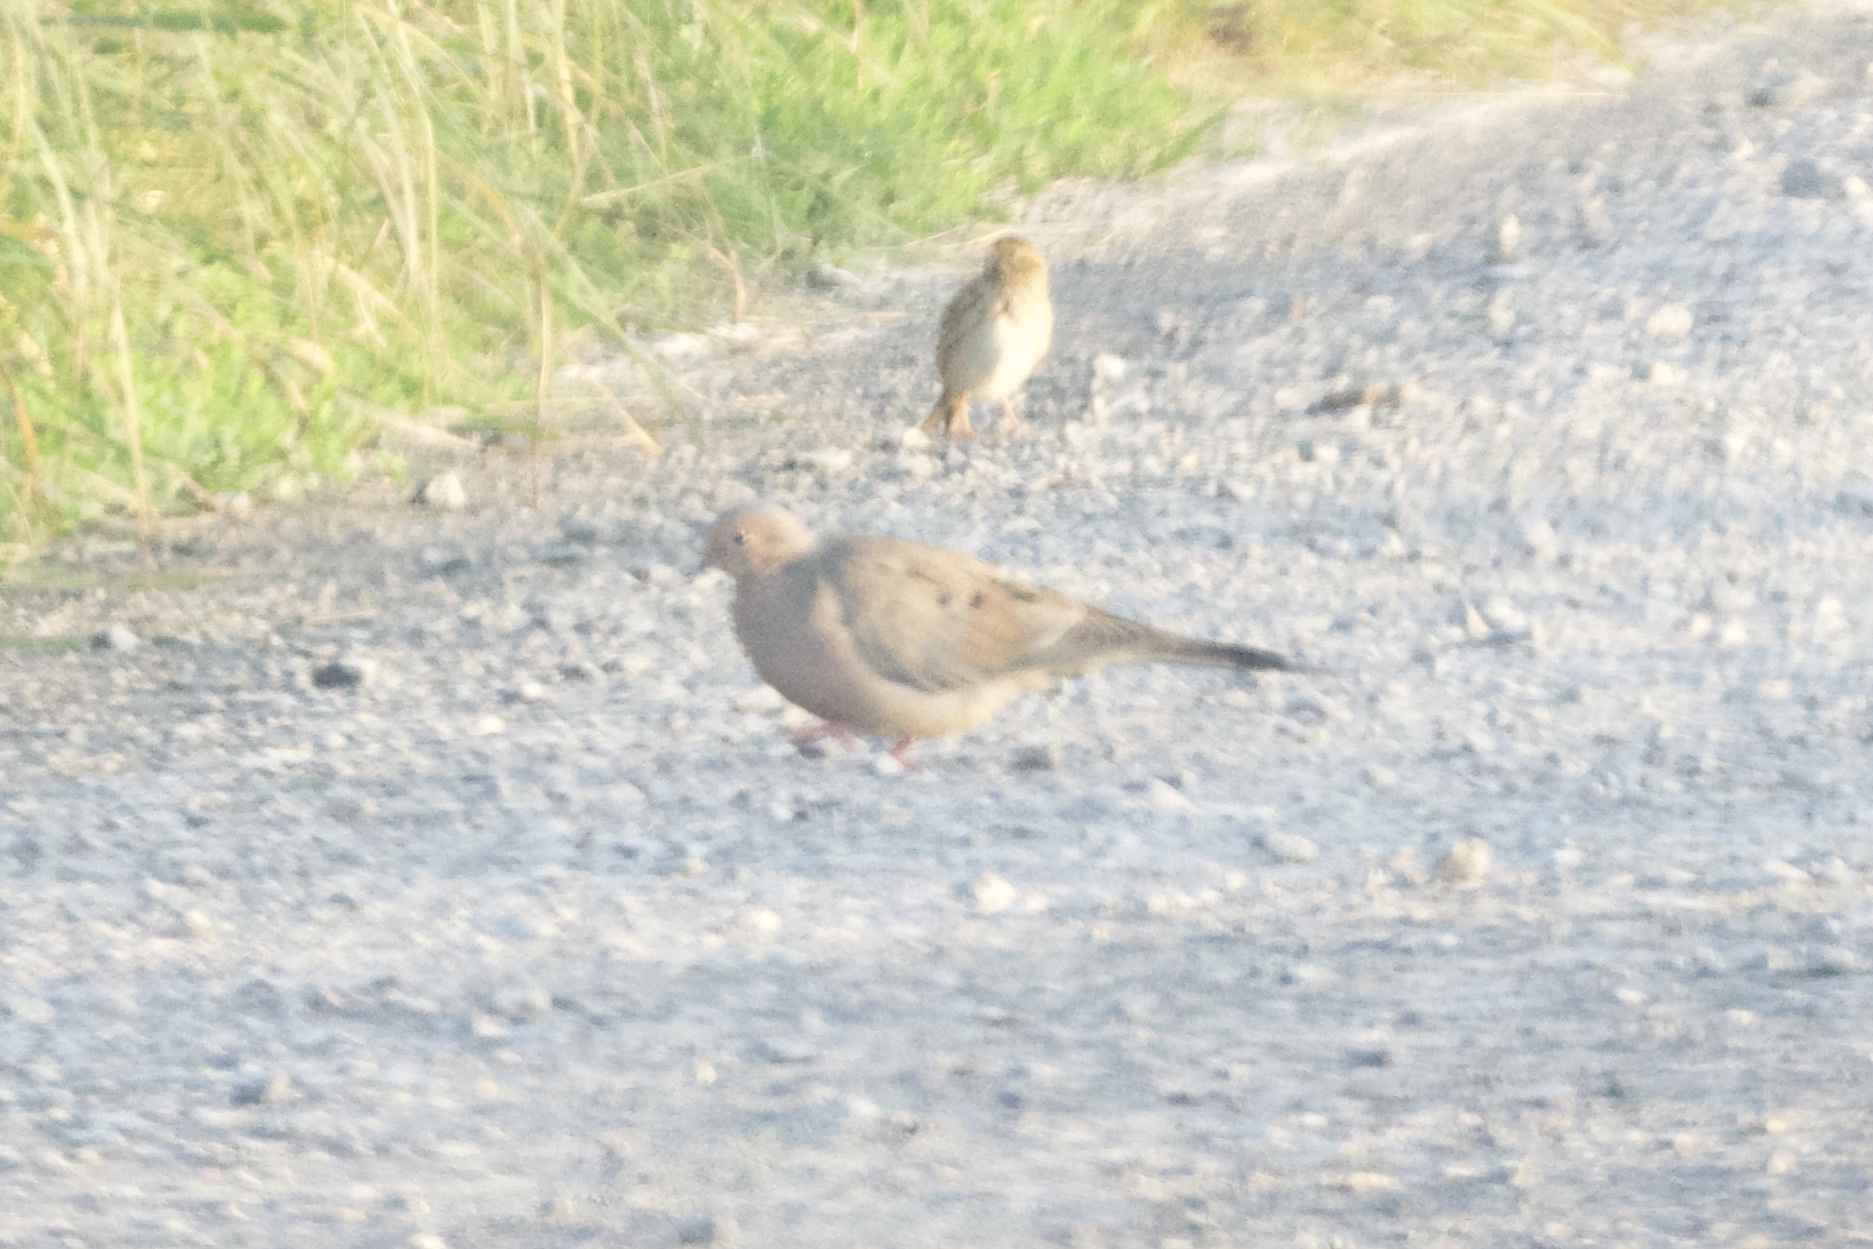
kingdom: Animalia
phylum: Chordata
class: Aves
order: Columbiformes
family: Columbidae
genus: Zenaida
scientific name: Zenaida macroura
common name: Mourning dove
